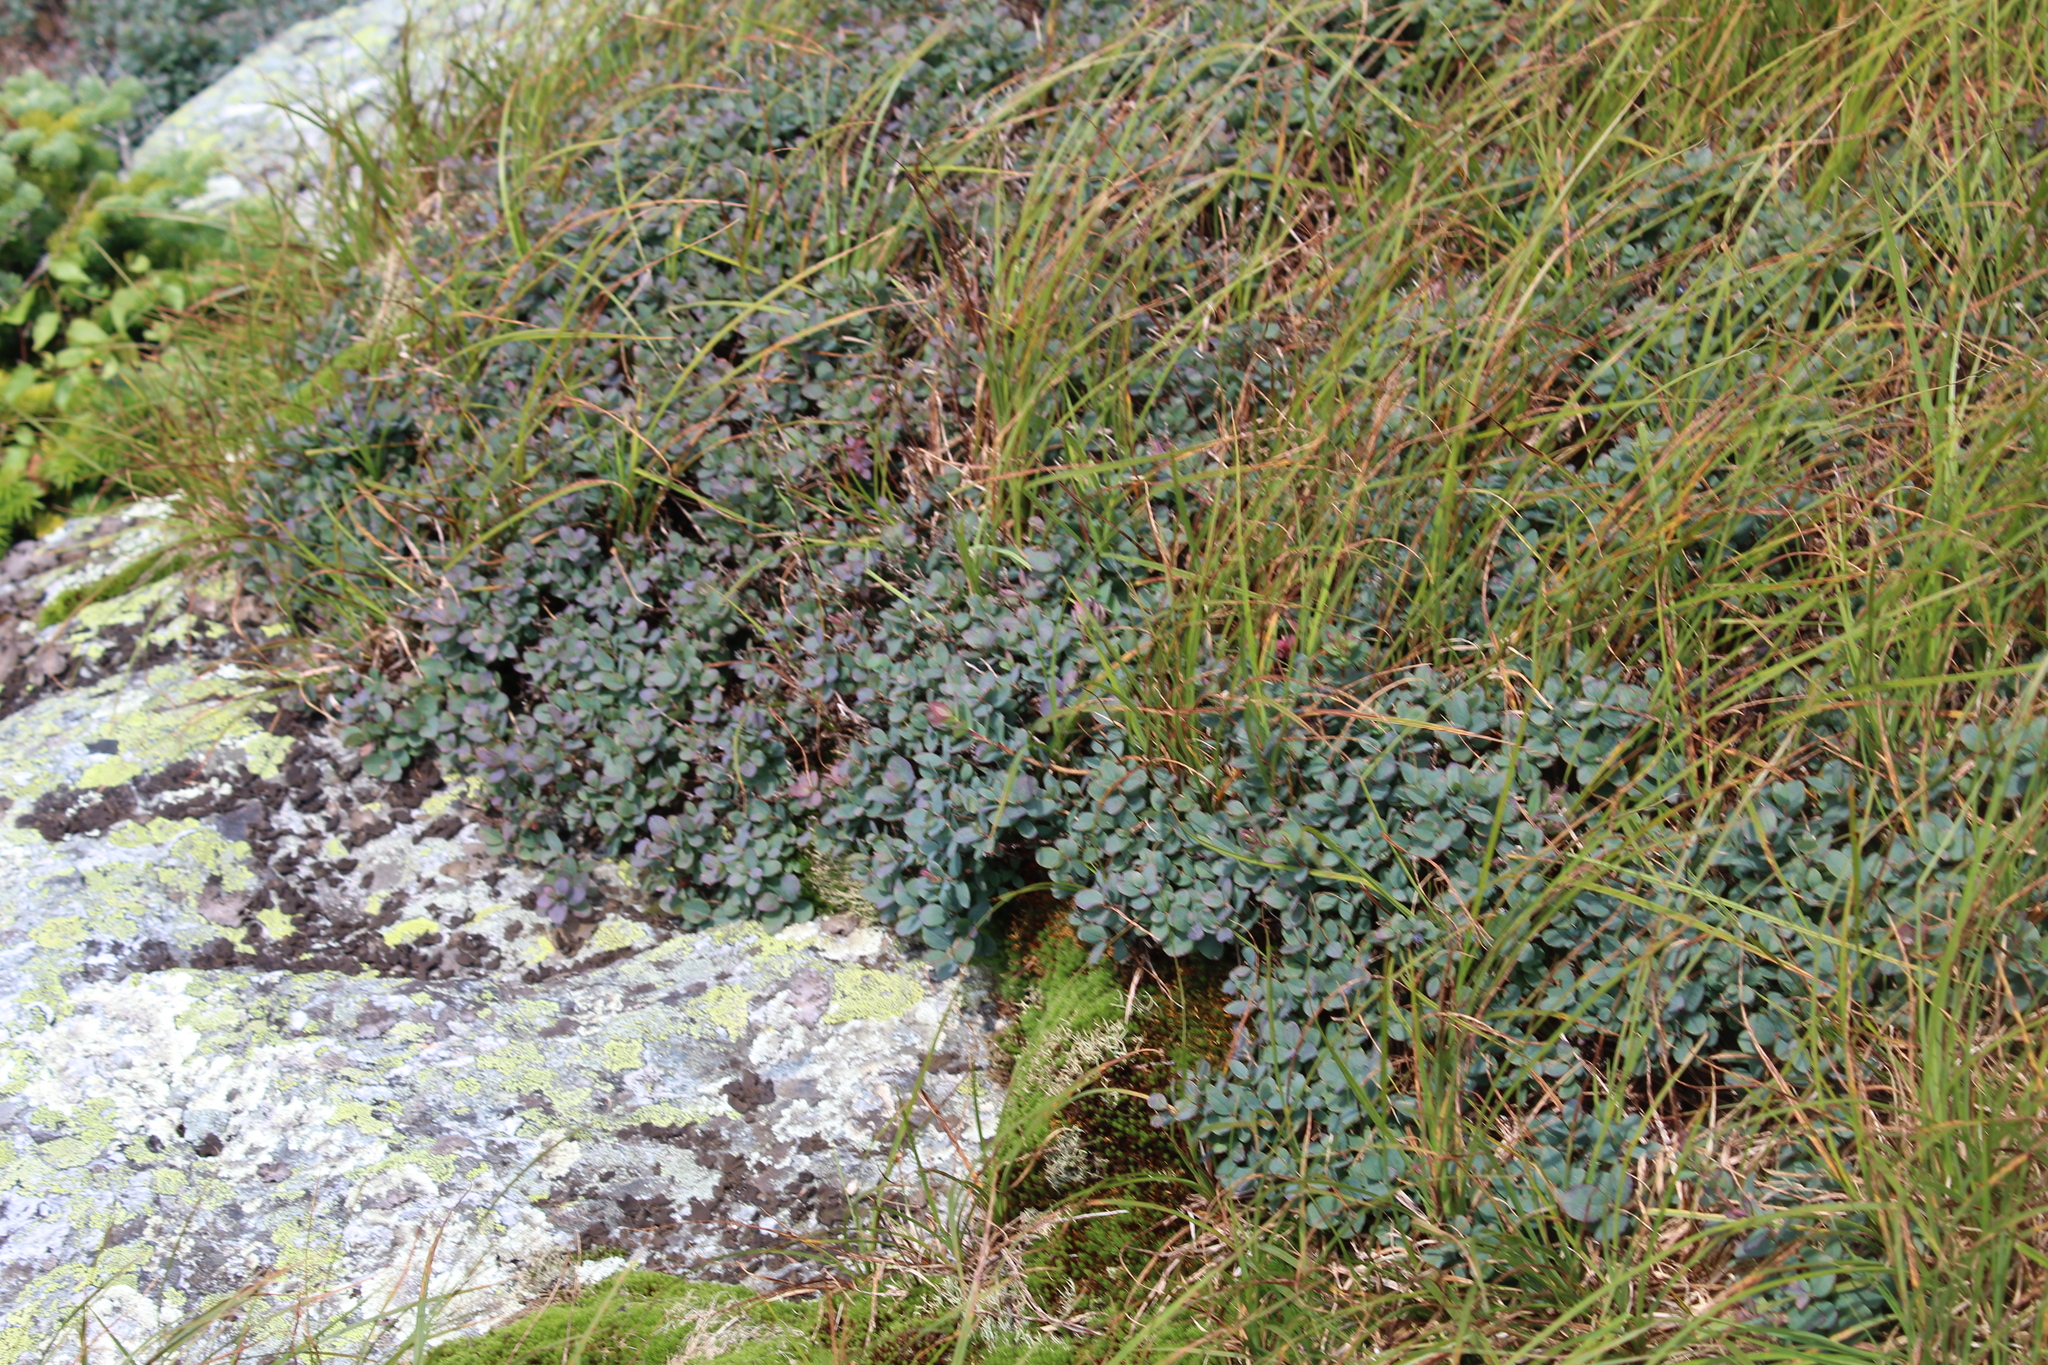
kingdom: Plantae
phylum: Tracheophyta
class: Magnoliopsida
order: Ericales
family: Ericaceae
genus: Vaccinium
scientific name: Vaccinium uliginosum
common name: Bog bilberry
